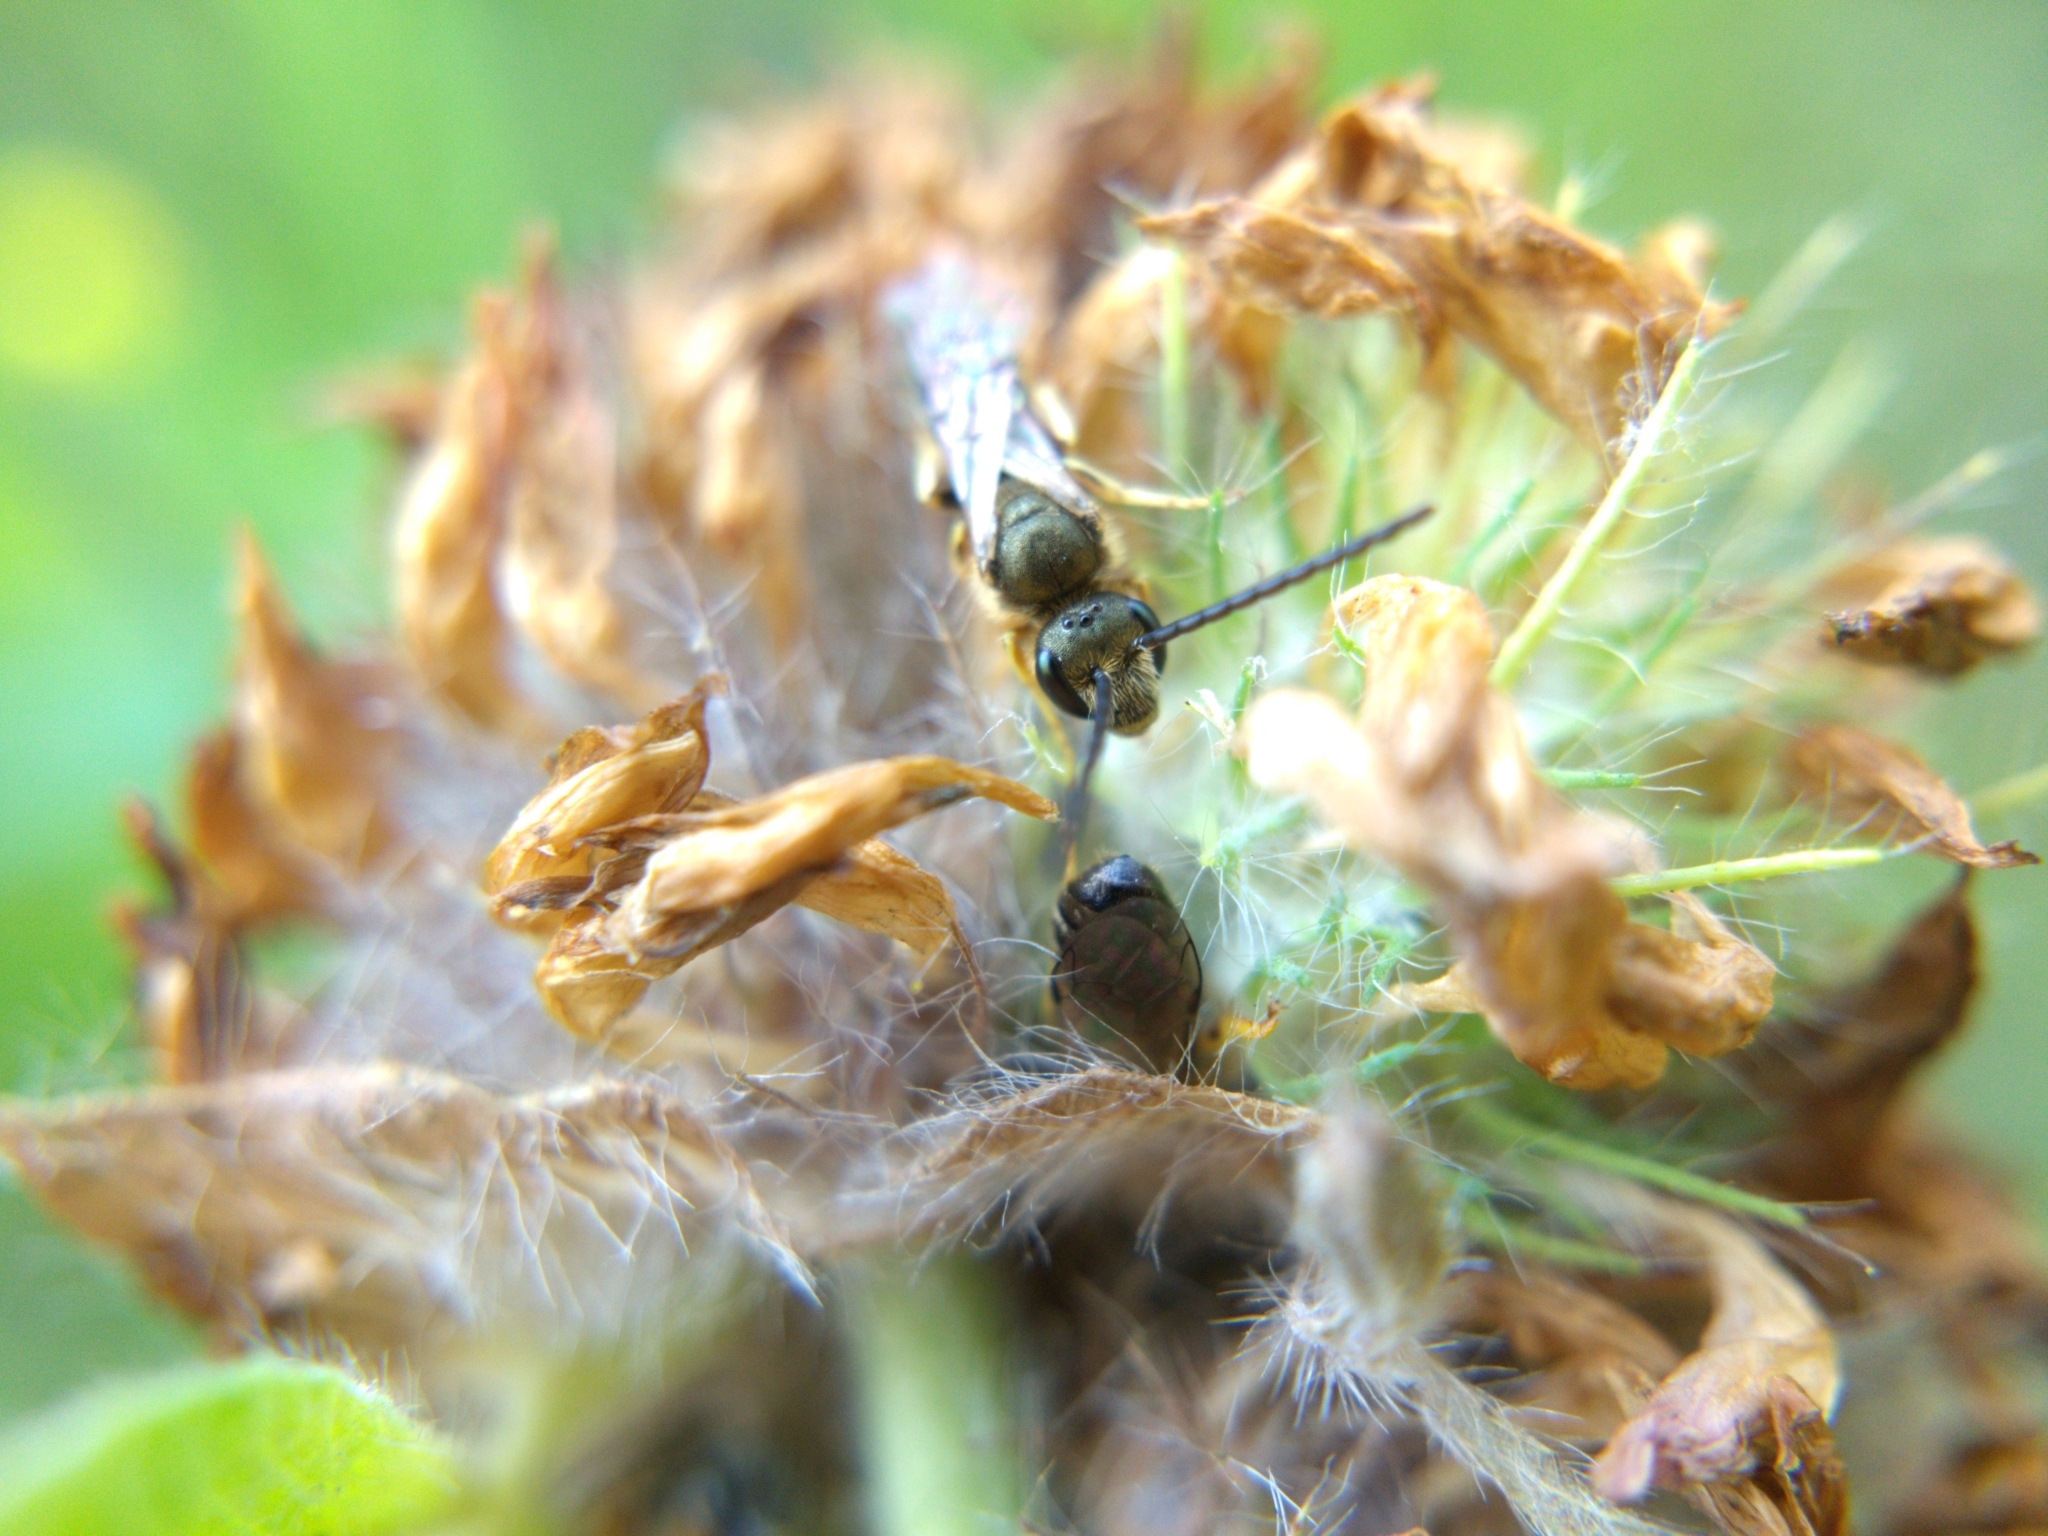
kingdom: Animalia
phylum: Arthropoda
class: Insecta
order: Hymenoptera
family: Halictidae
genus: Halictus
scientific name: Halictus confusus
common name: Southern bronze furrow bee
